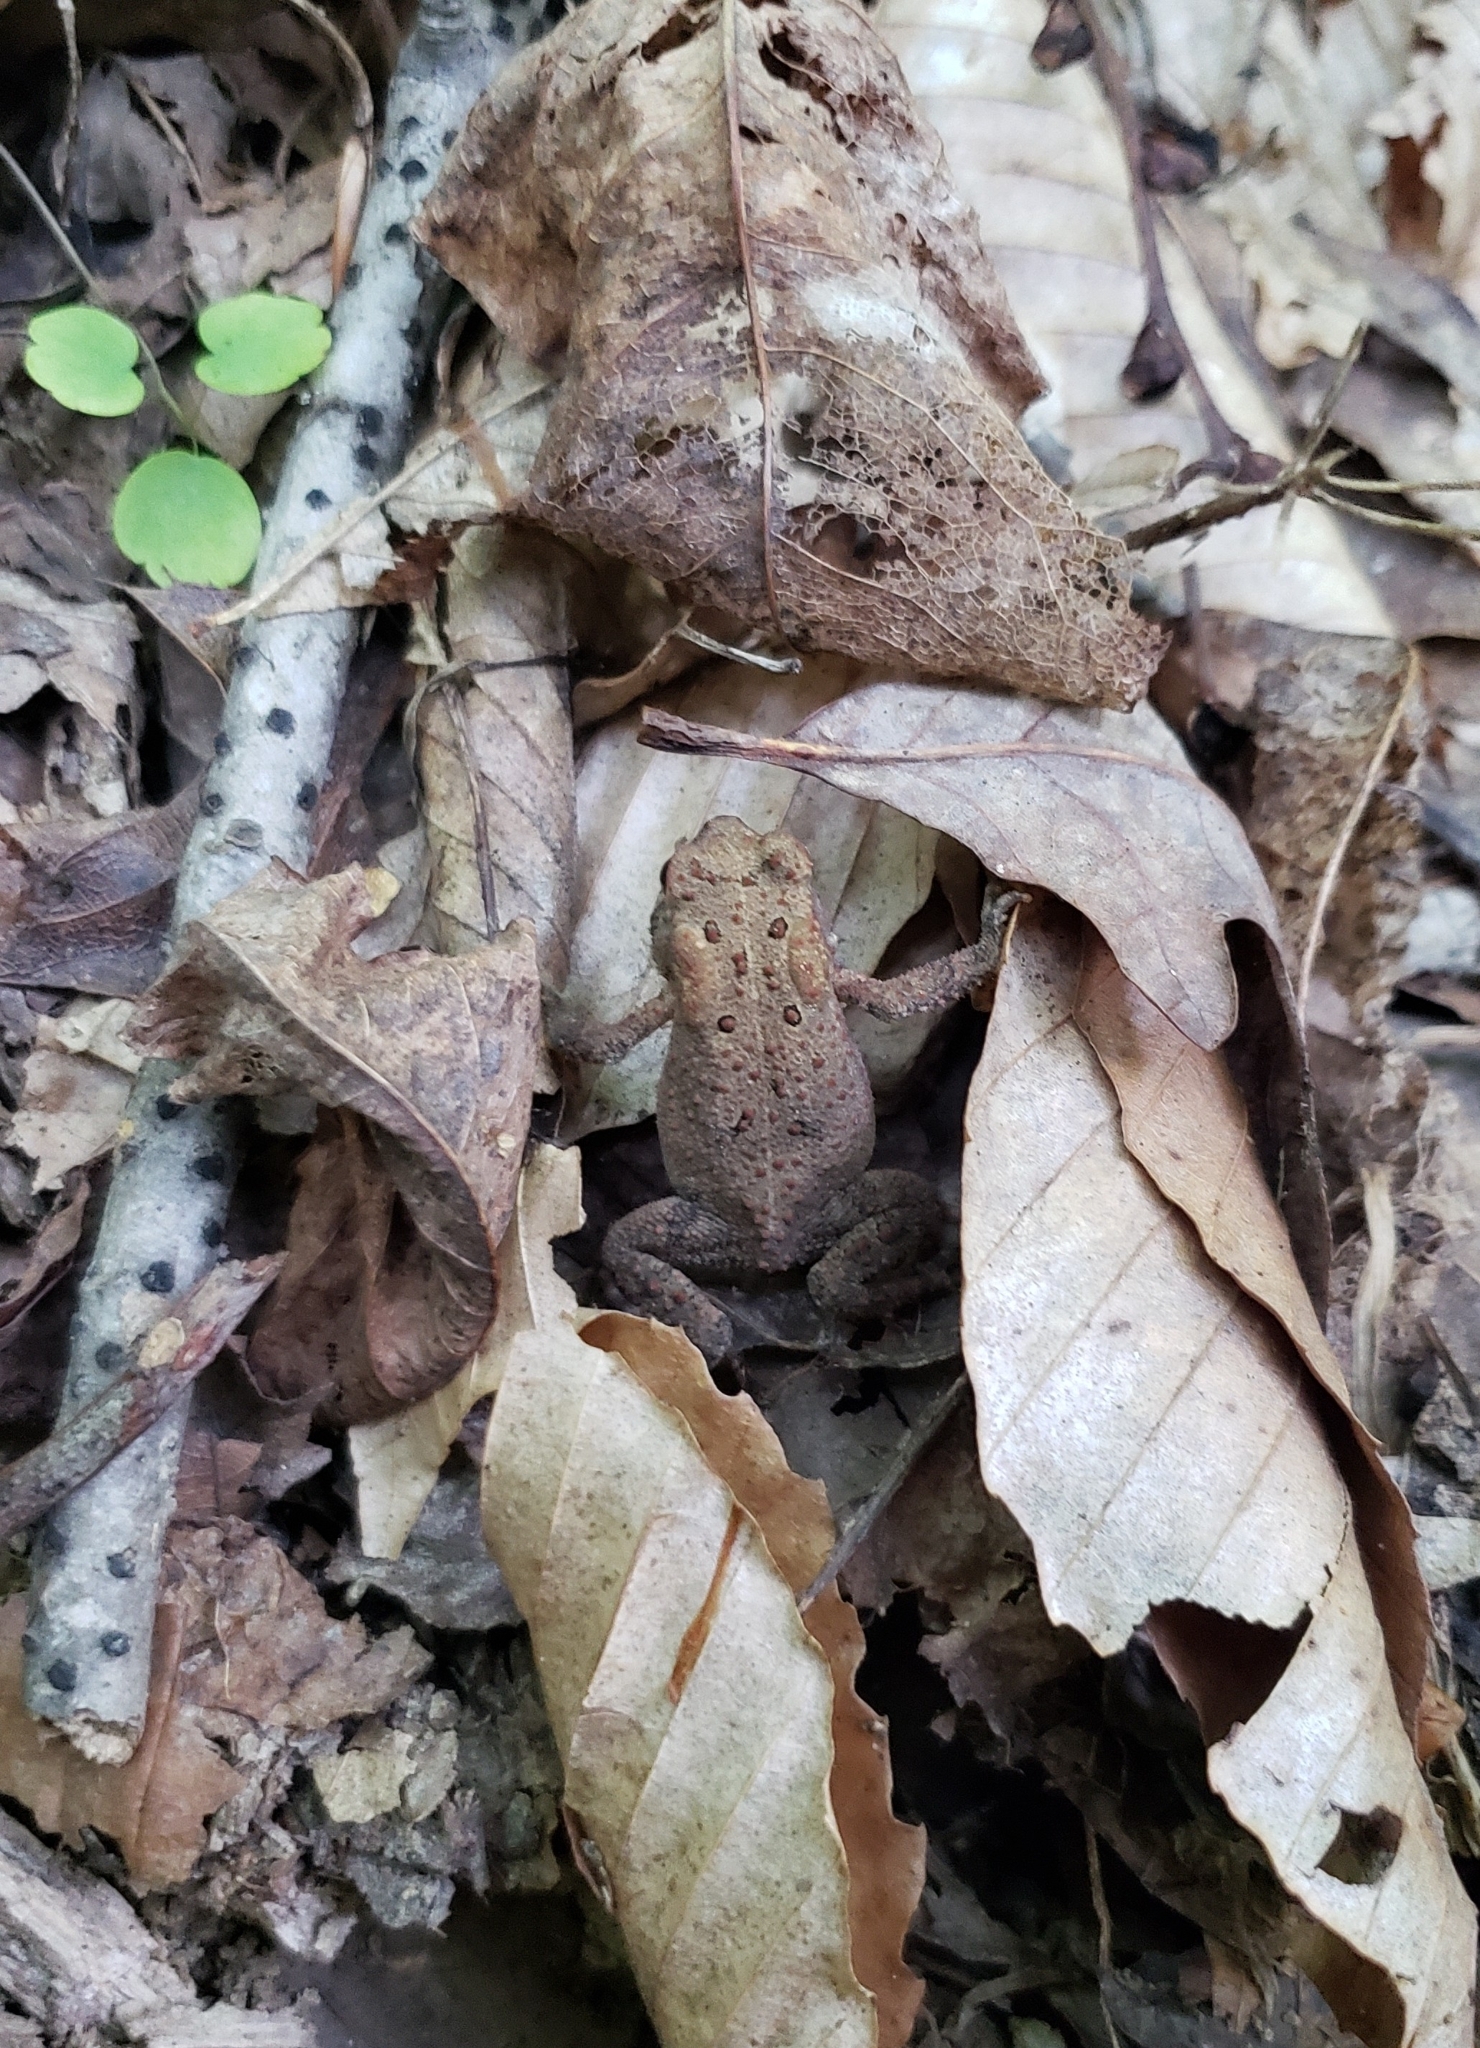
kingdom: Animalia
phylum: Chordata
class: Amphibia
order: Anura
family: Bufonidae
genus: Anaxyrus
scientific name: Anaxyrus americanus
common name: American toad
